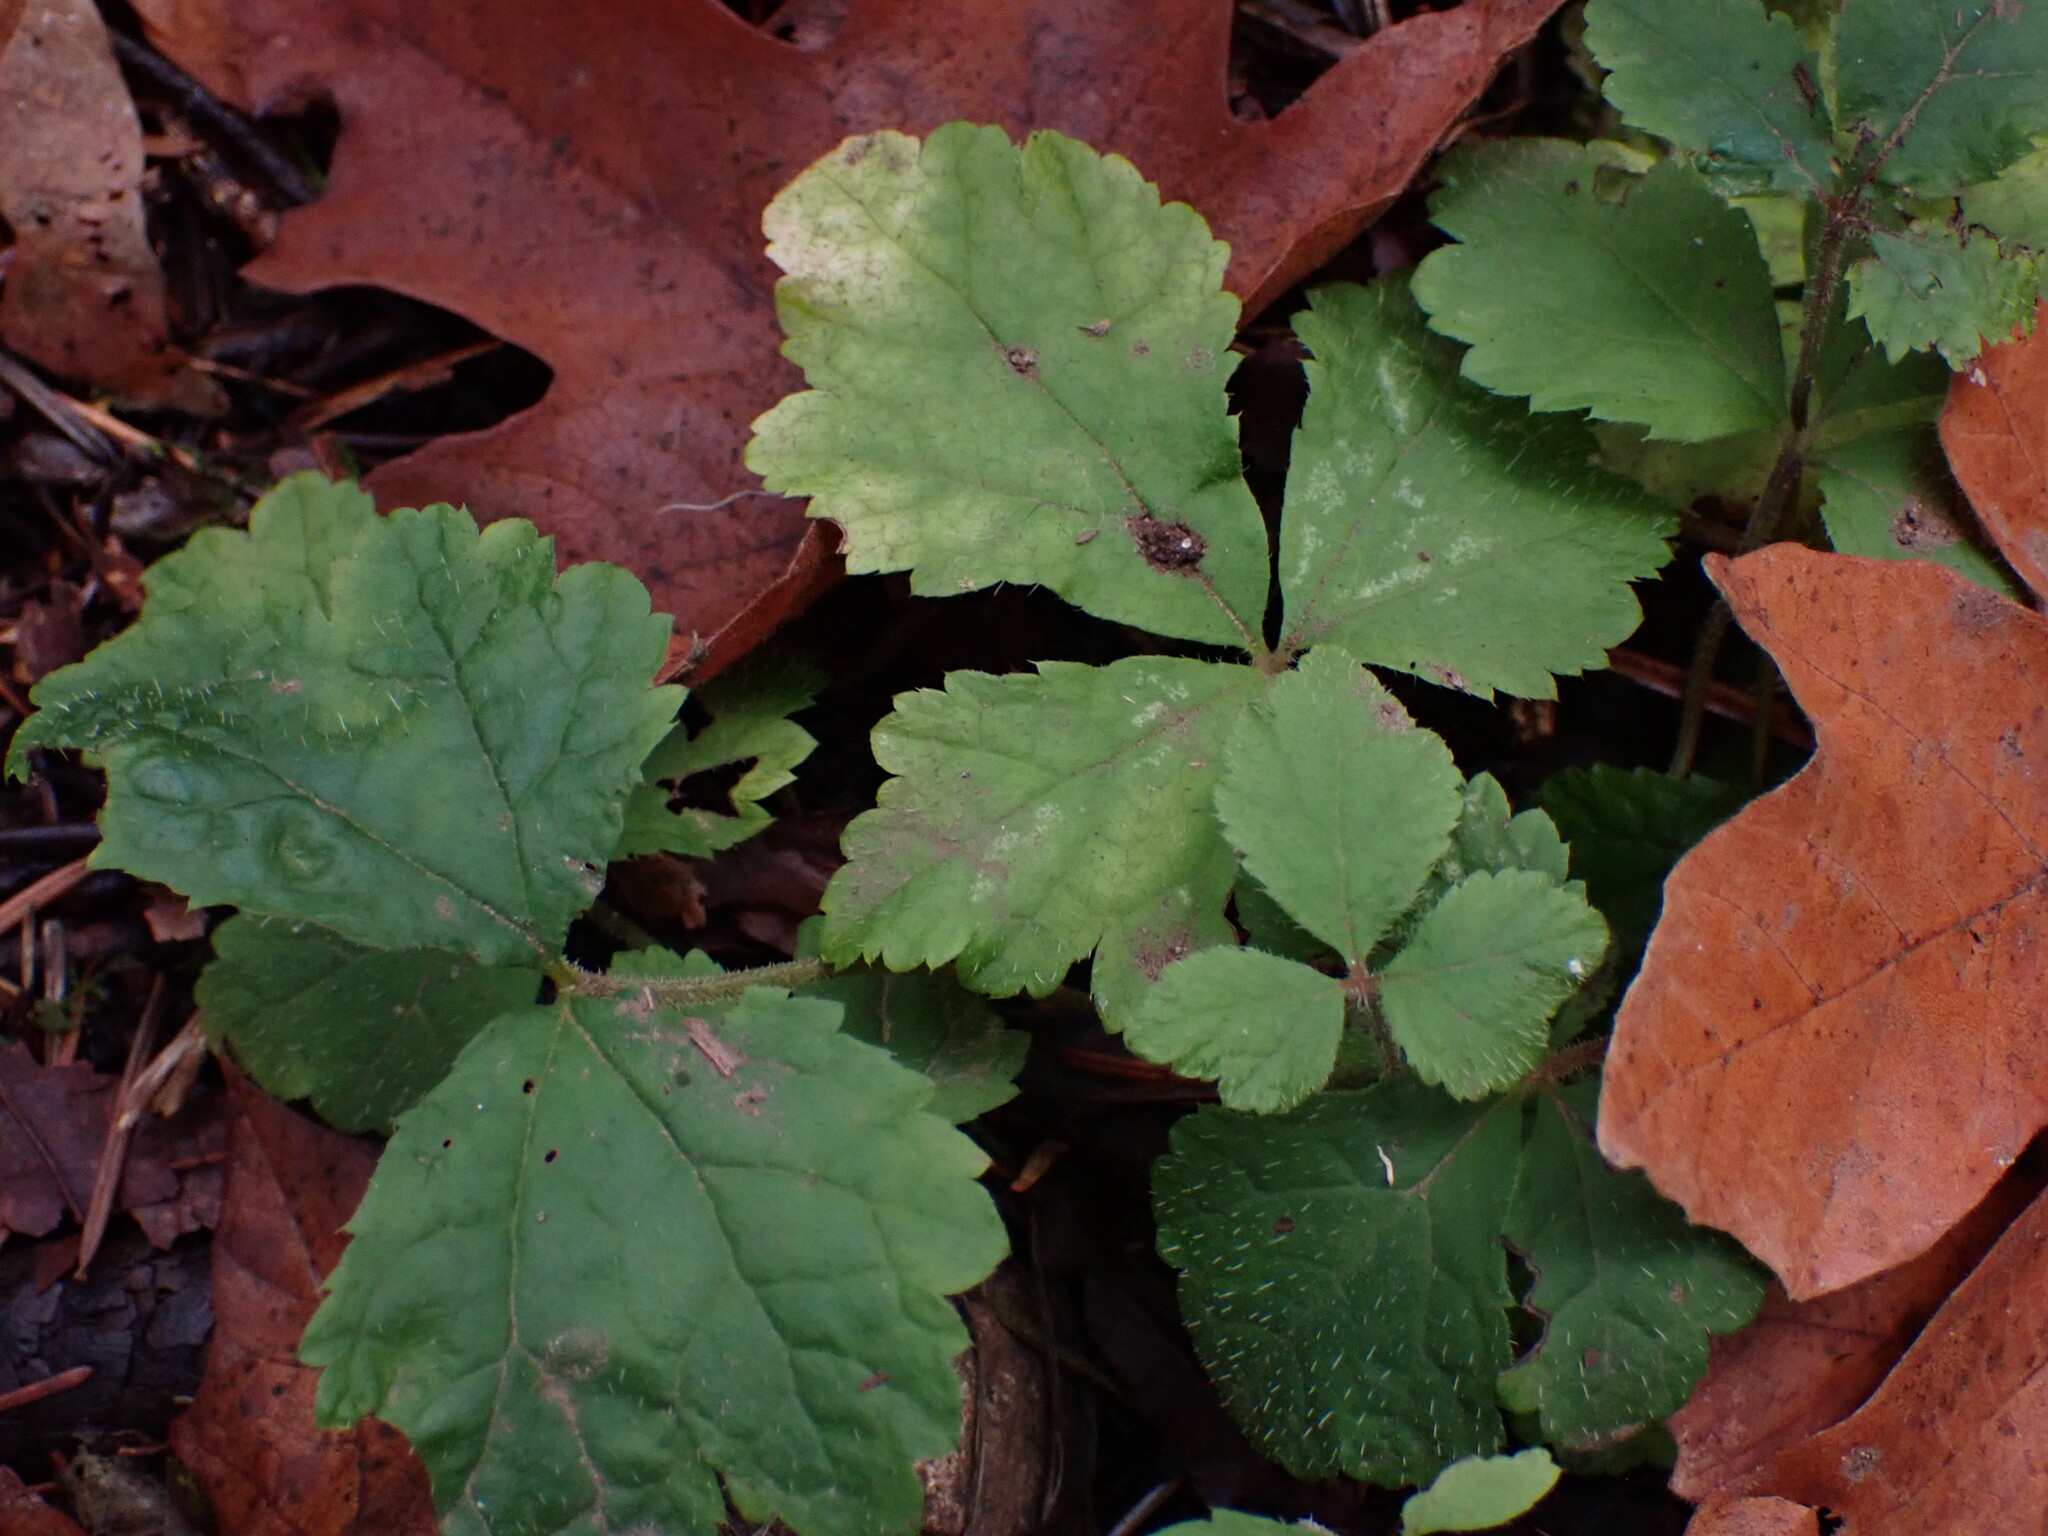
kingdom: Plantae
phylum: Tracheophyta
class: Magnoliopsida
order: Saxifragales
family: Saxifragaceae
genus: Tiarella
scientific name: Tiarella trifoliata
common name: Sugar-scoop
